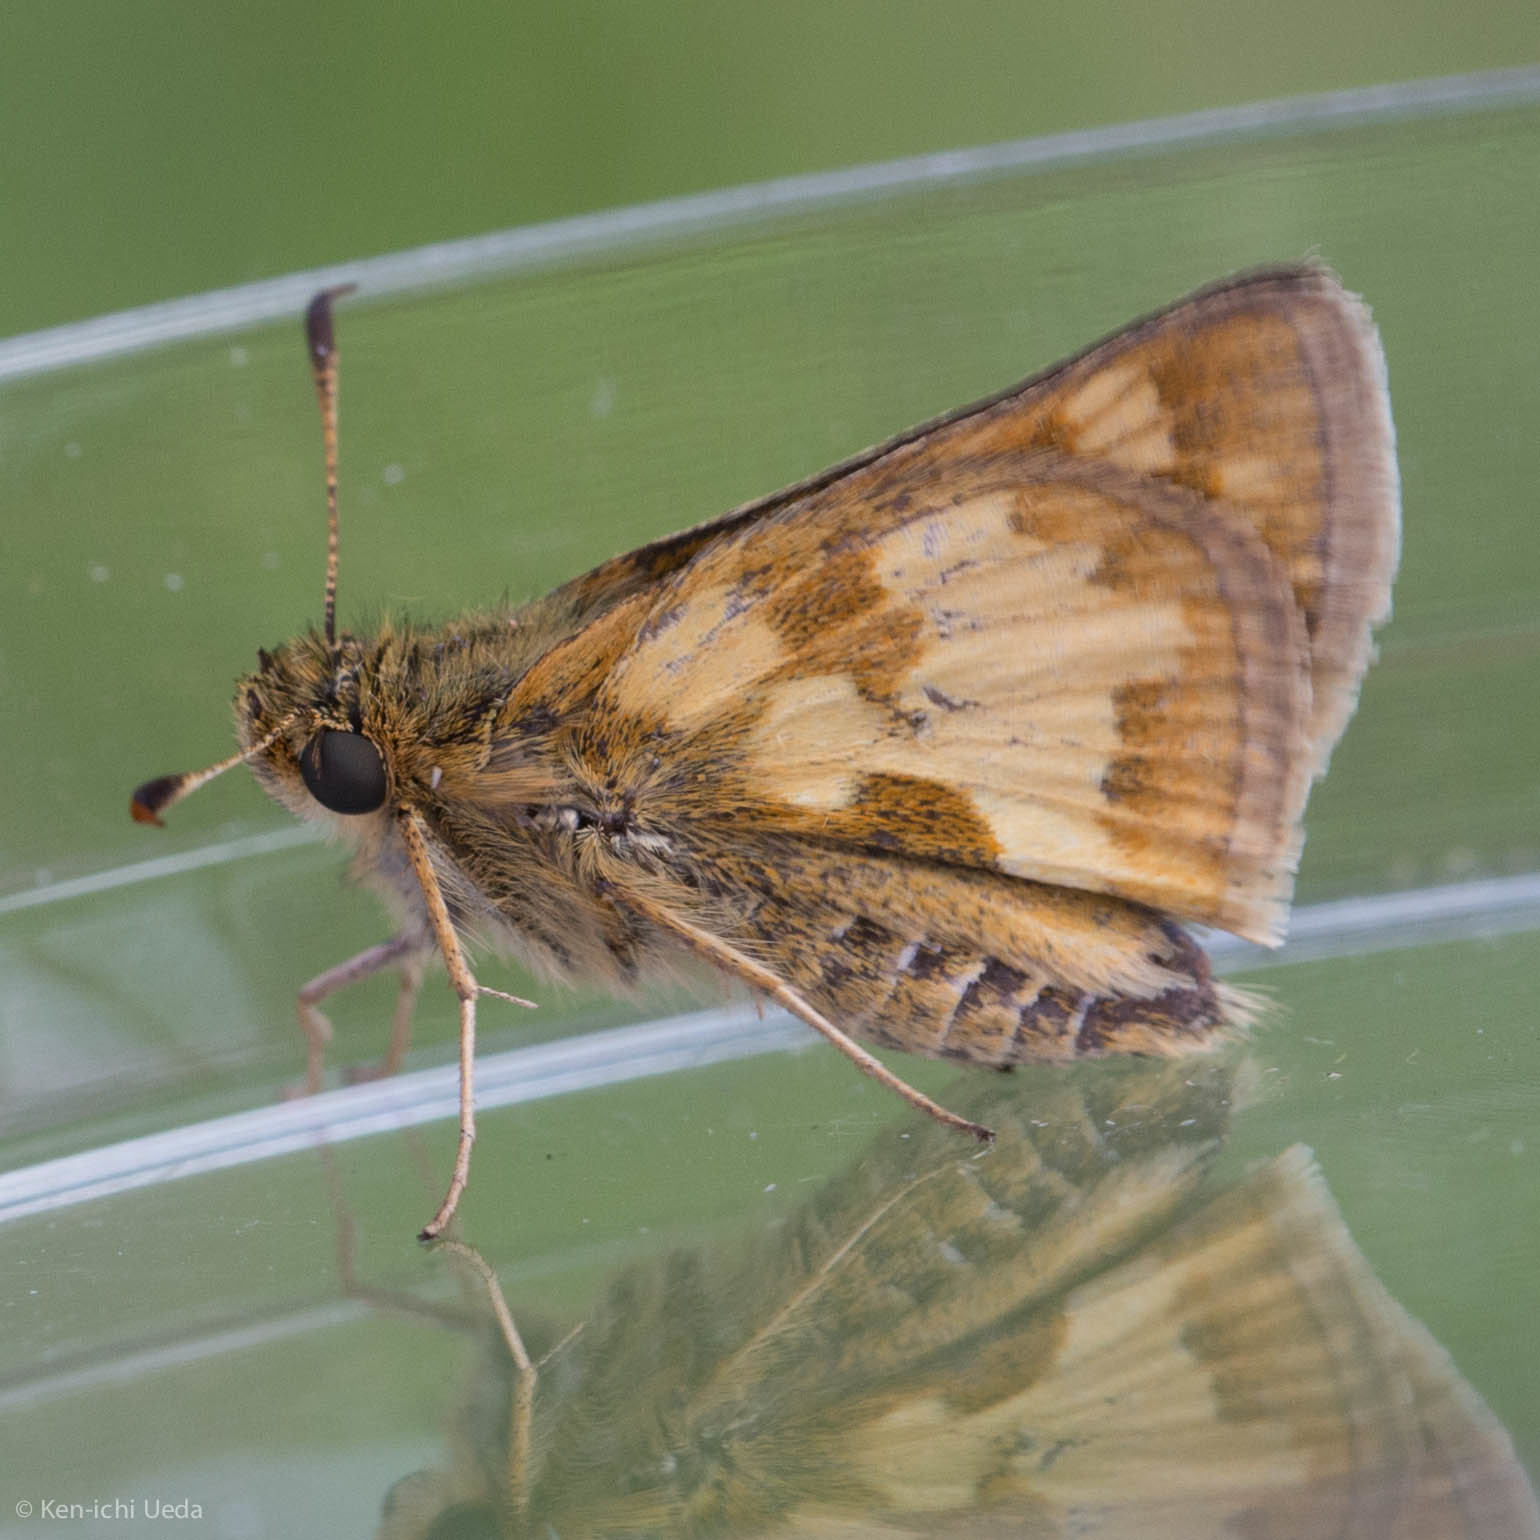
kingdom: Animalia
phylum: Arthropoda
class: Insecta
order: Lepidoptera
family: Hesperiidae
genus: Polites
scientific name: Polites coras
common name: Peck's skipper
